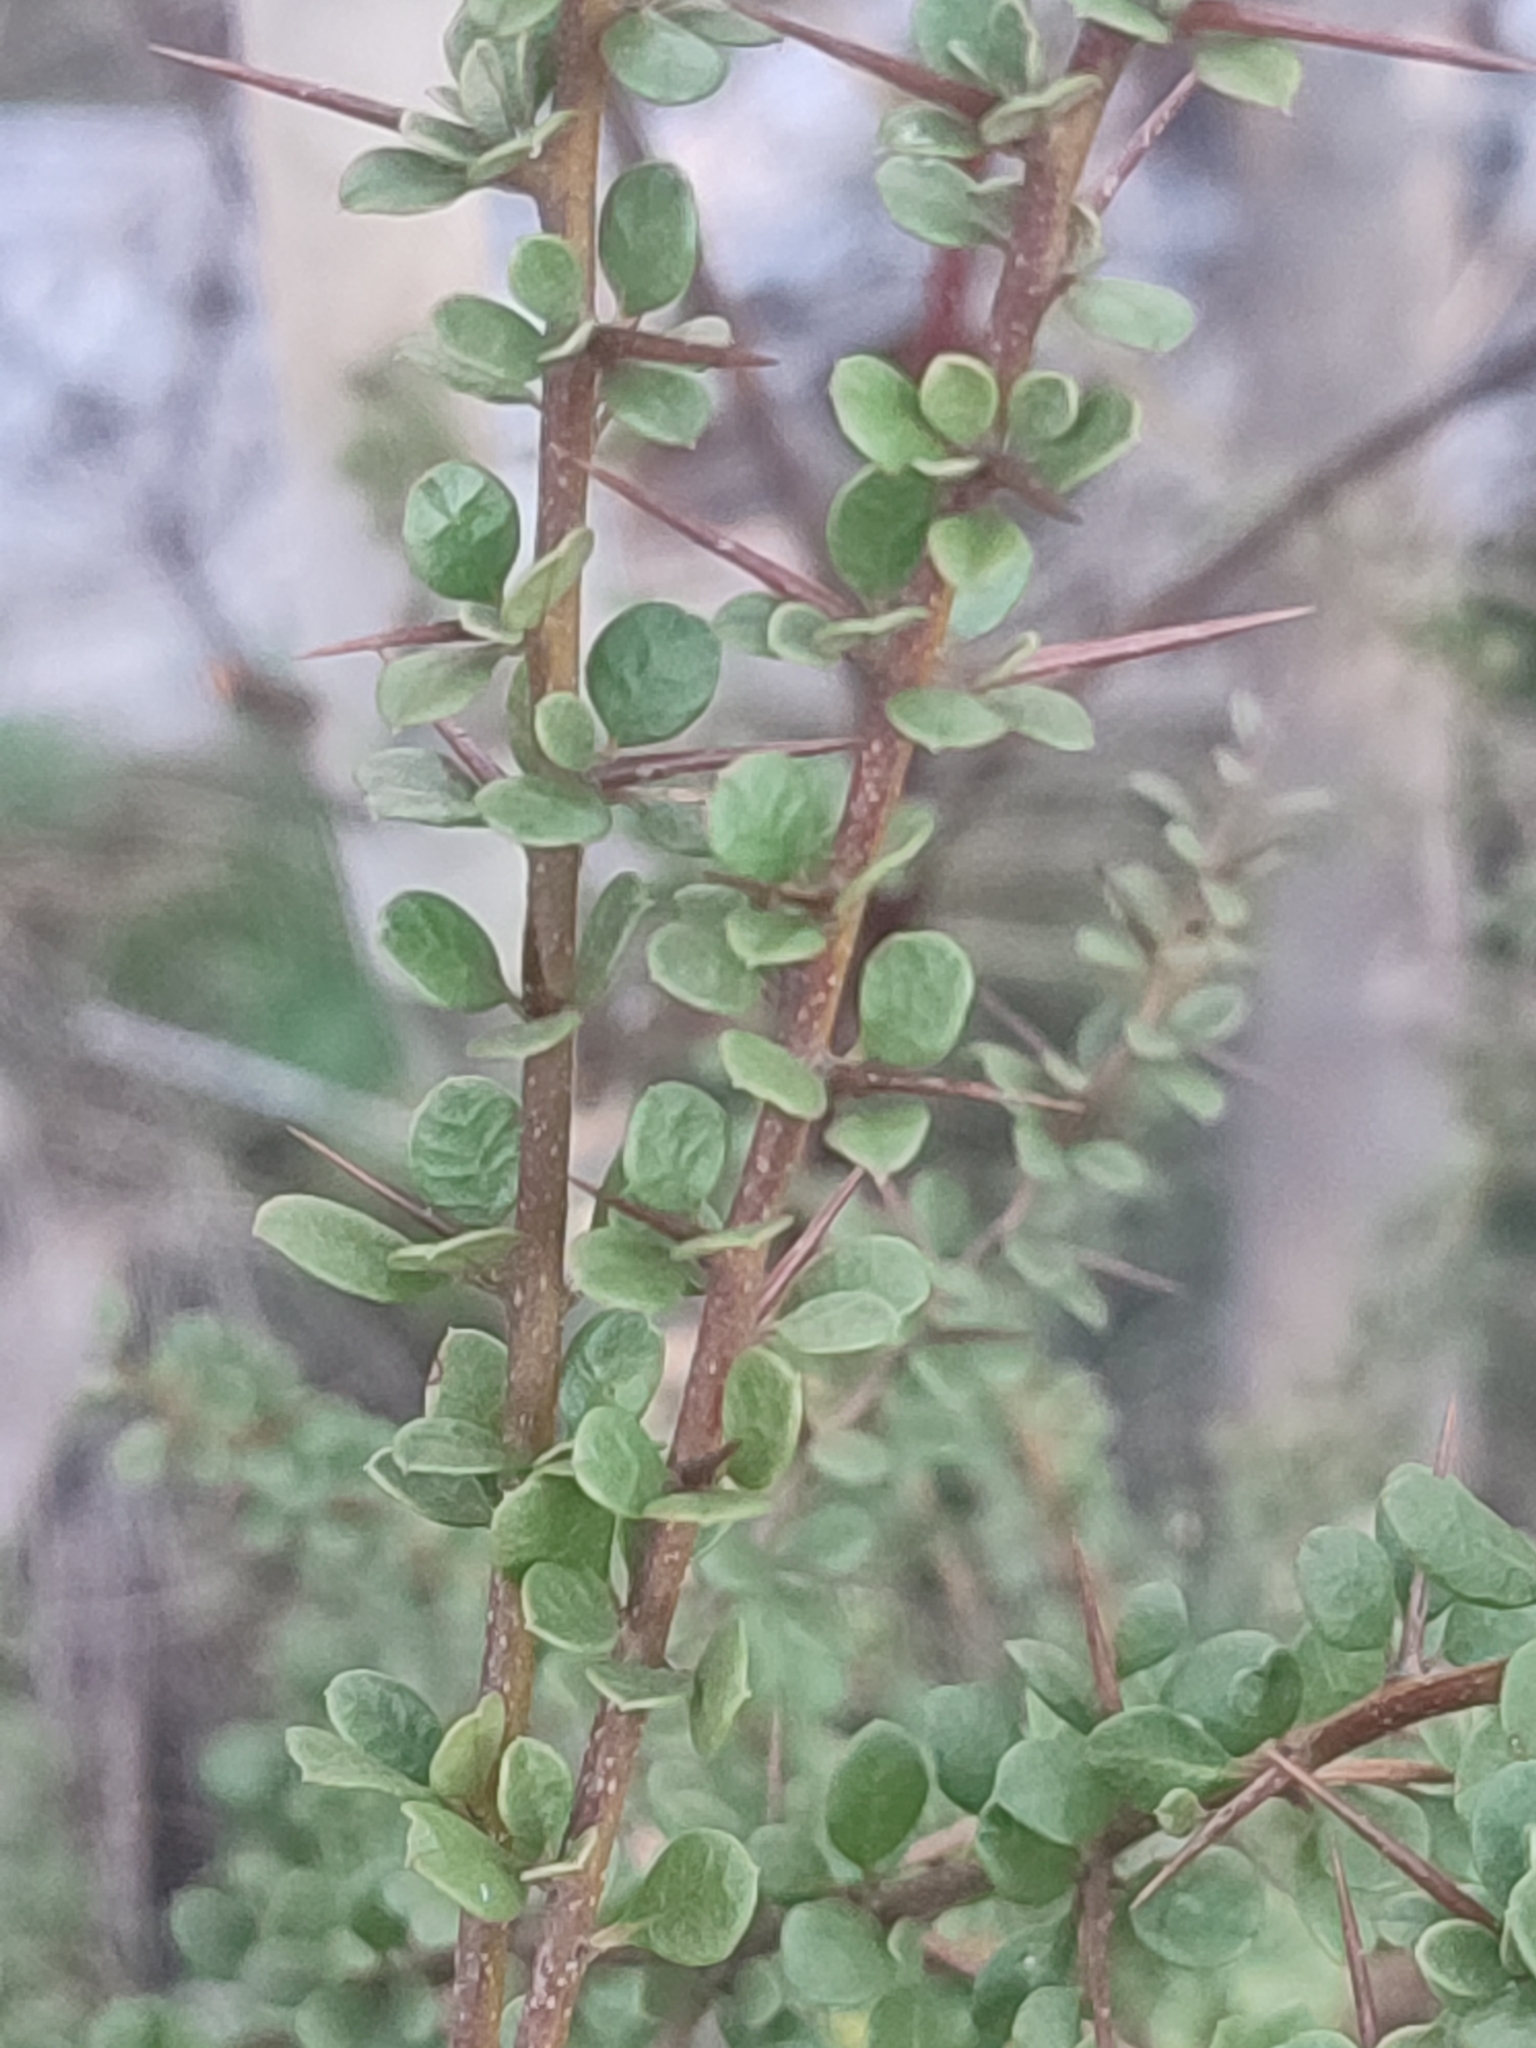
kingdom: Plantae
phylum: Tracheophyta
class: Magnoliopsida
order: Apiales
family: Pittosporaceae
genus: Bursaria
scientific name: Bursaria spinosa
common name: Australian blackthorn
